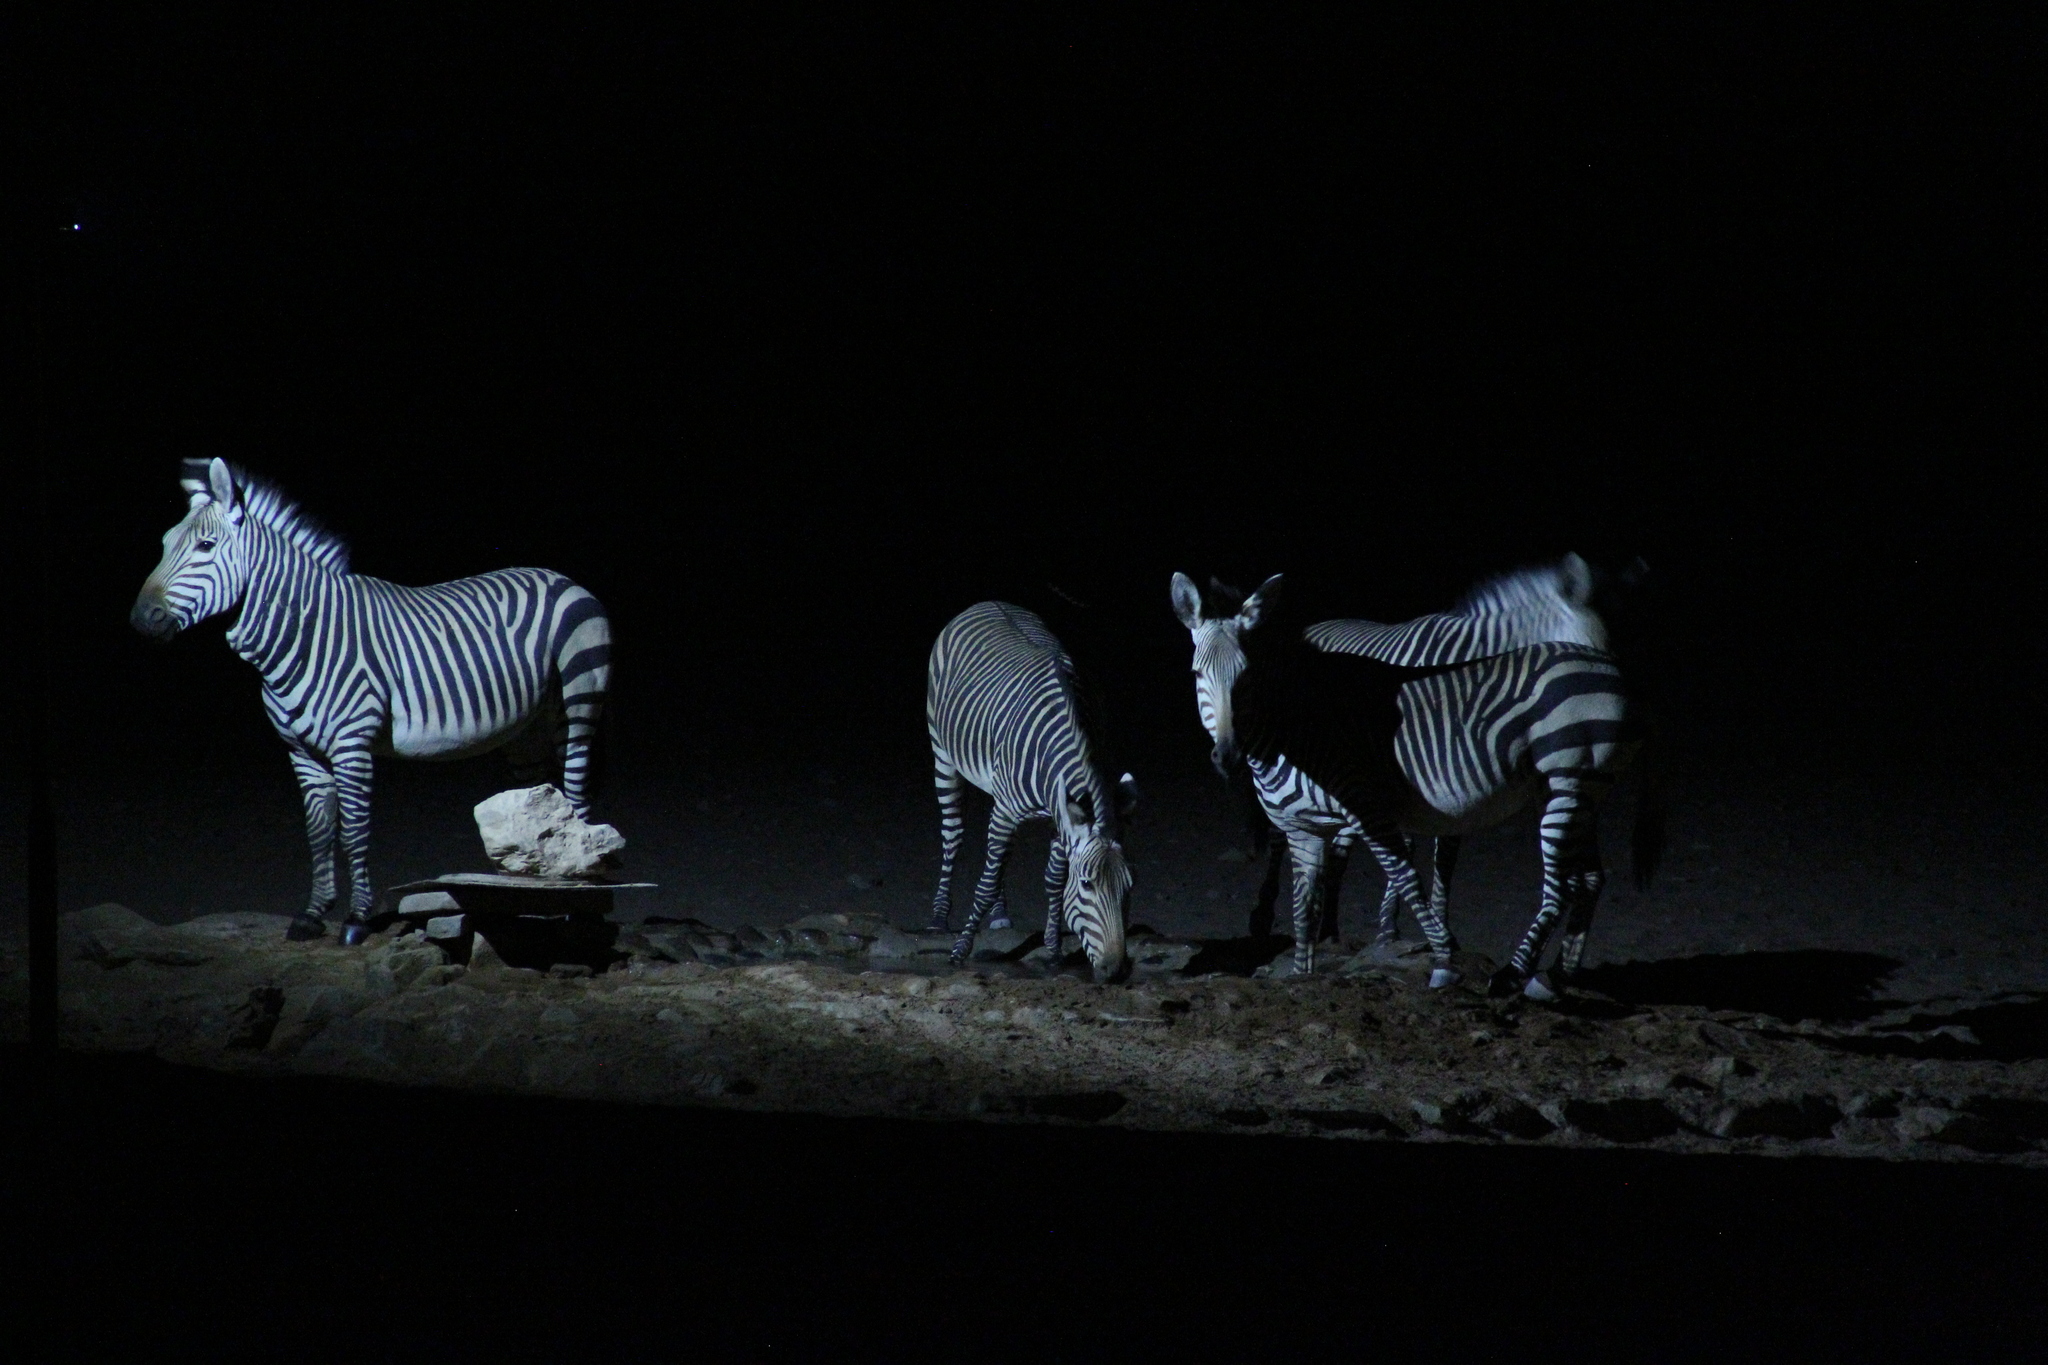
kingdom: Animalia
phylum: Chordata
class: Mammalia
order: Perissodactyla
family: Equidae
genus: Equus
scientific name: Equus hartmannae
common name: Hartmann's mountain zebra
